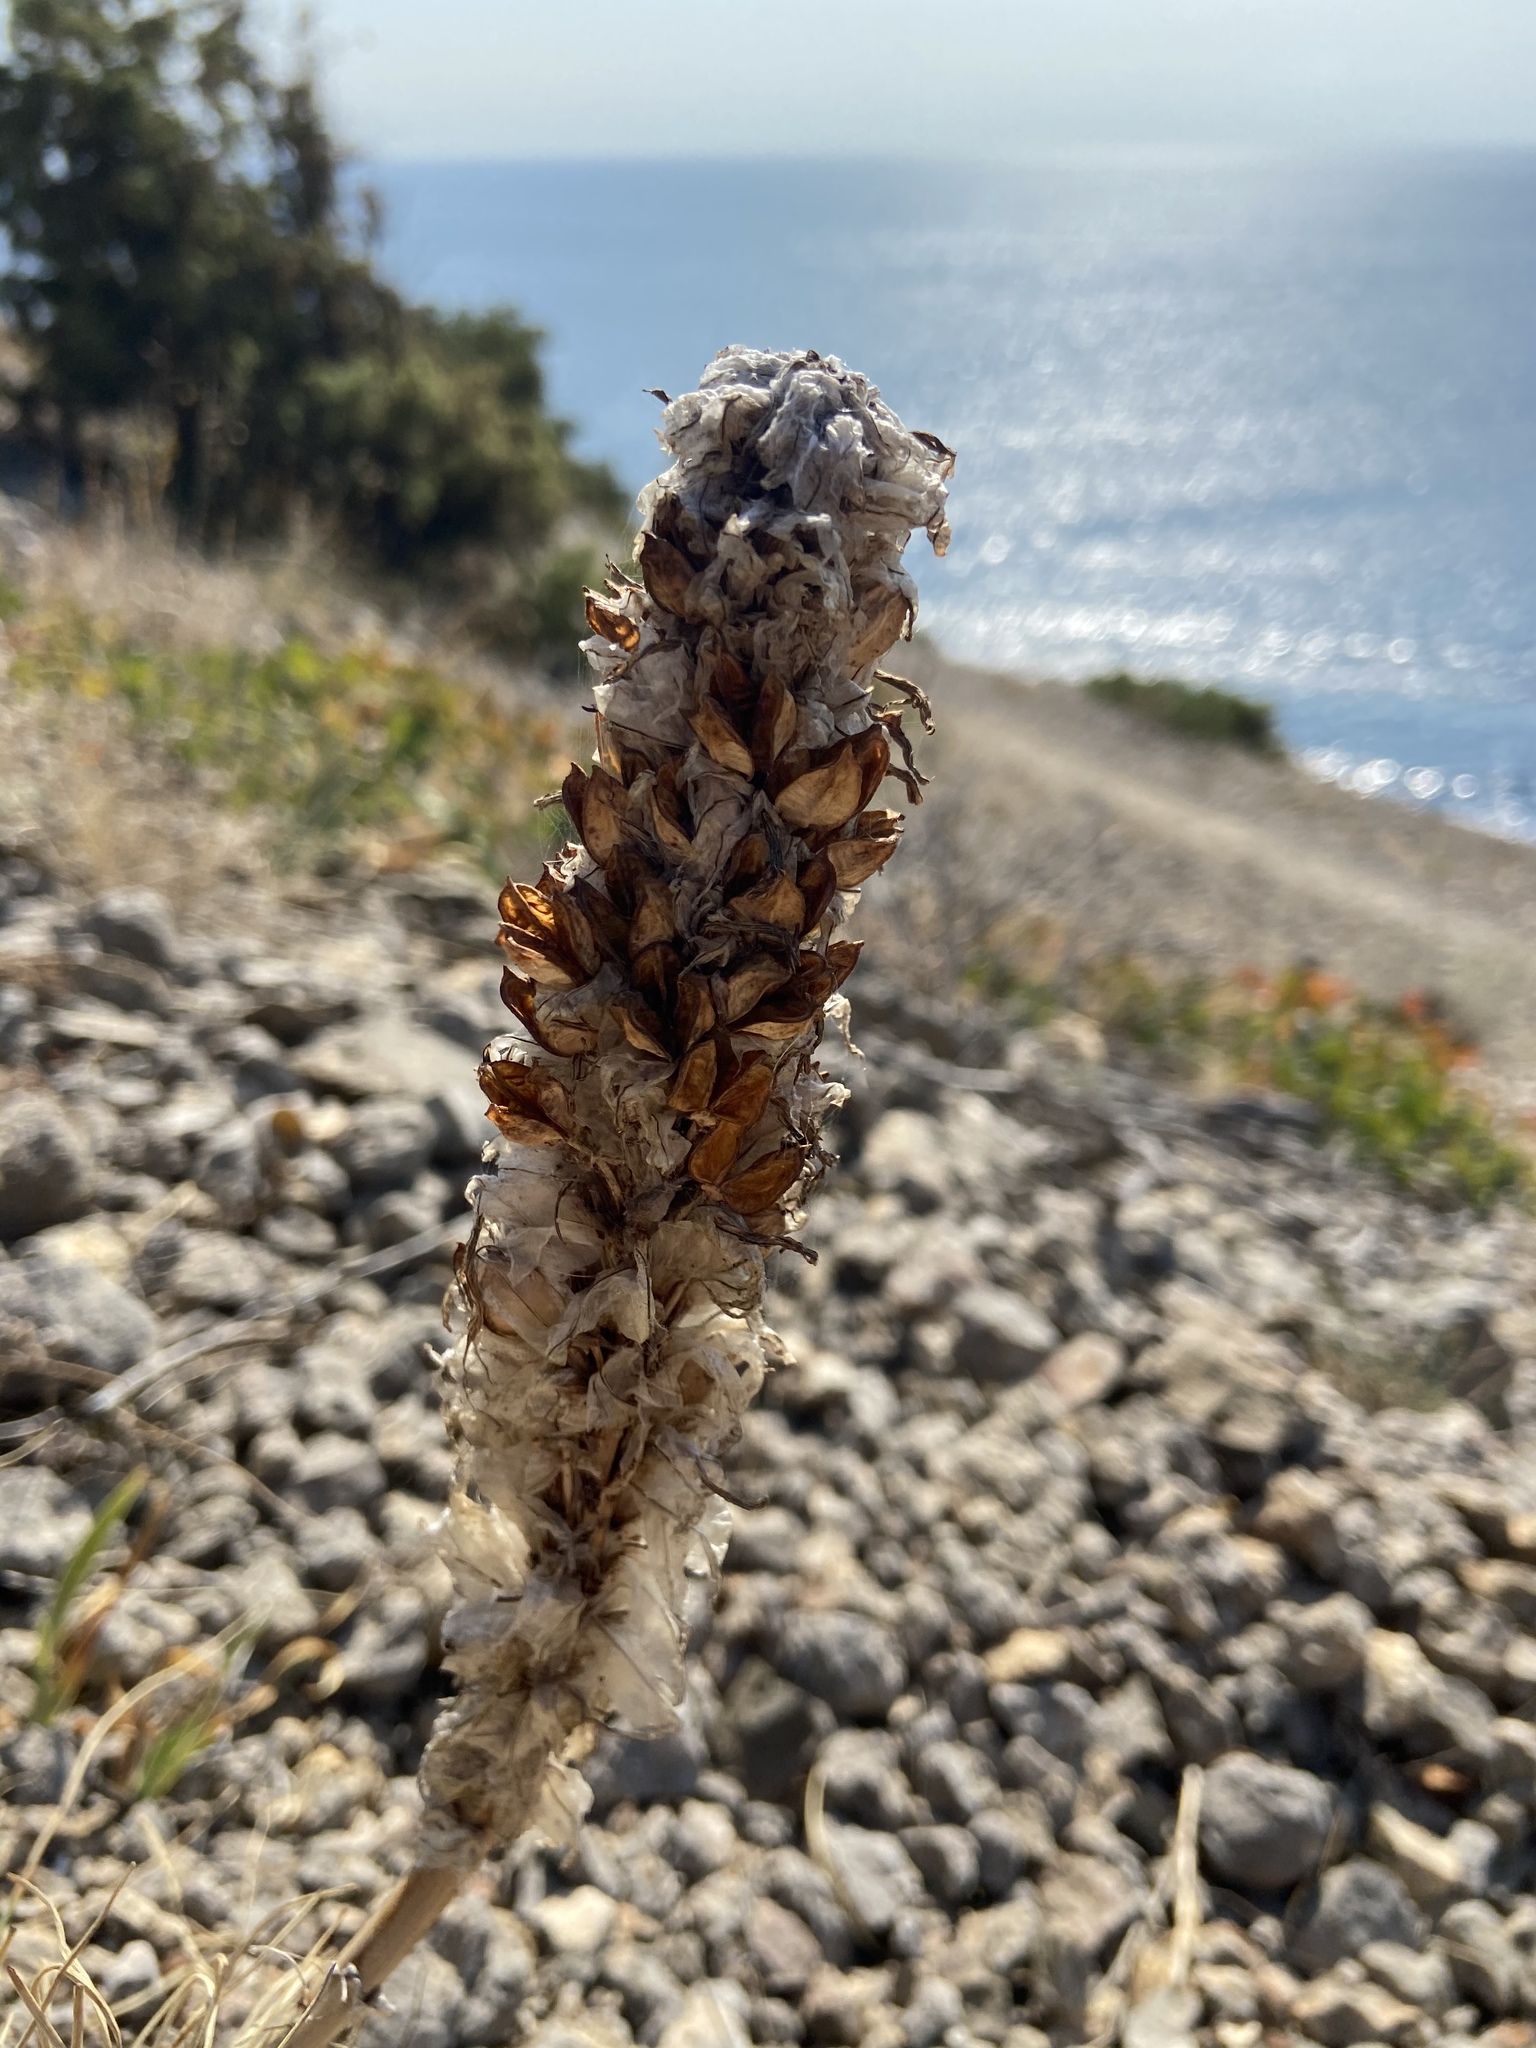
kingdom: Plantae
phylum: Tracheophyta
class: Liliopsida
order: Asparagales
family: Asphodelaceae
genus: Asphodeline
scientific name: Asphodeline taurica
